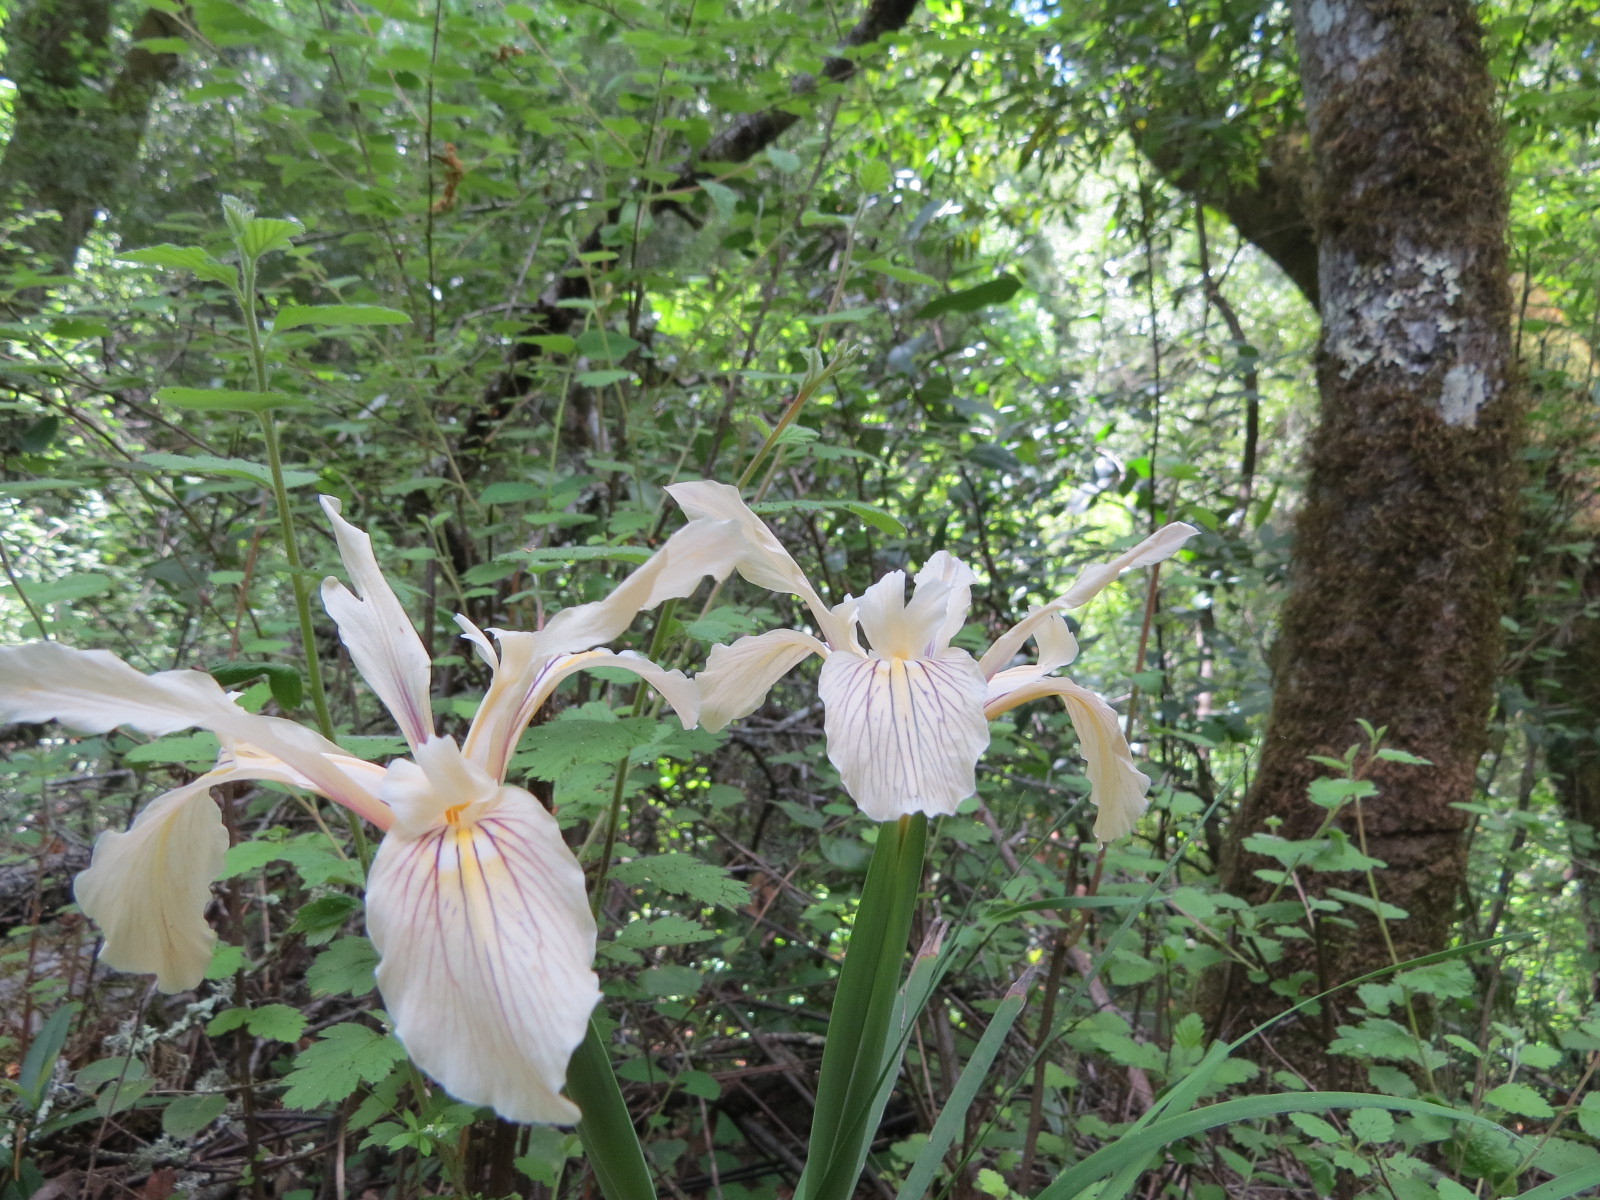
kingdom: Plantae
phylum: Tracheophyta
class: Liliopsida
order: Asparagales
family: Iridaceae
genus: Iris
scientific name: Iris fernaldii
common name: Fernald's iris
